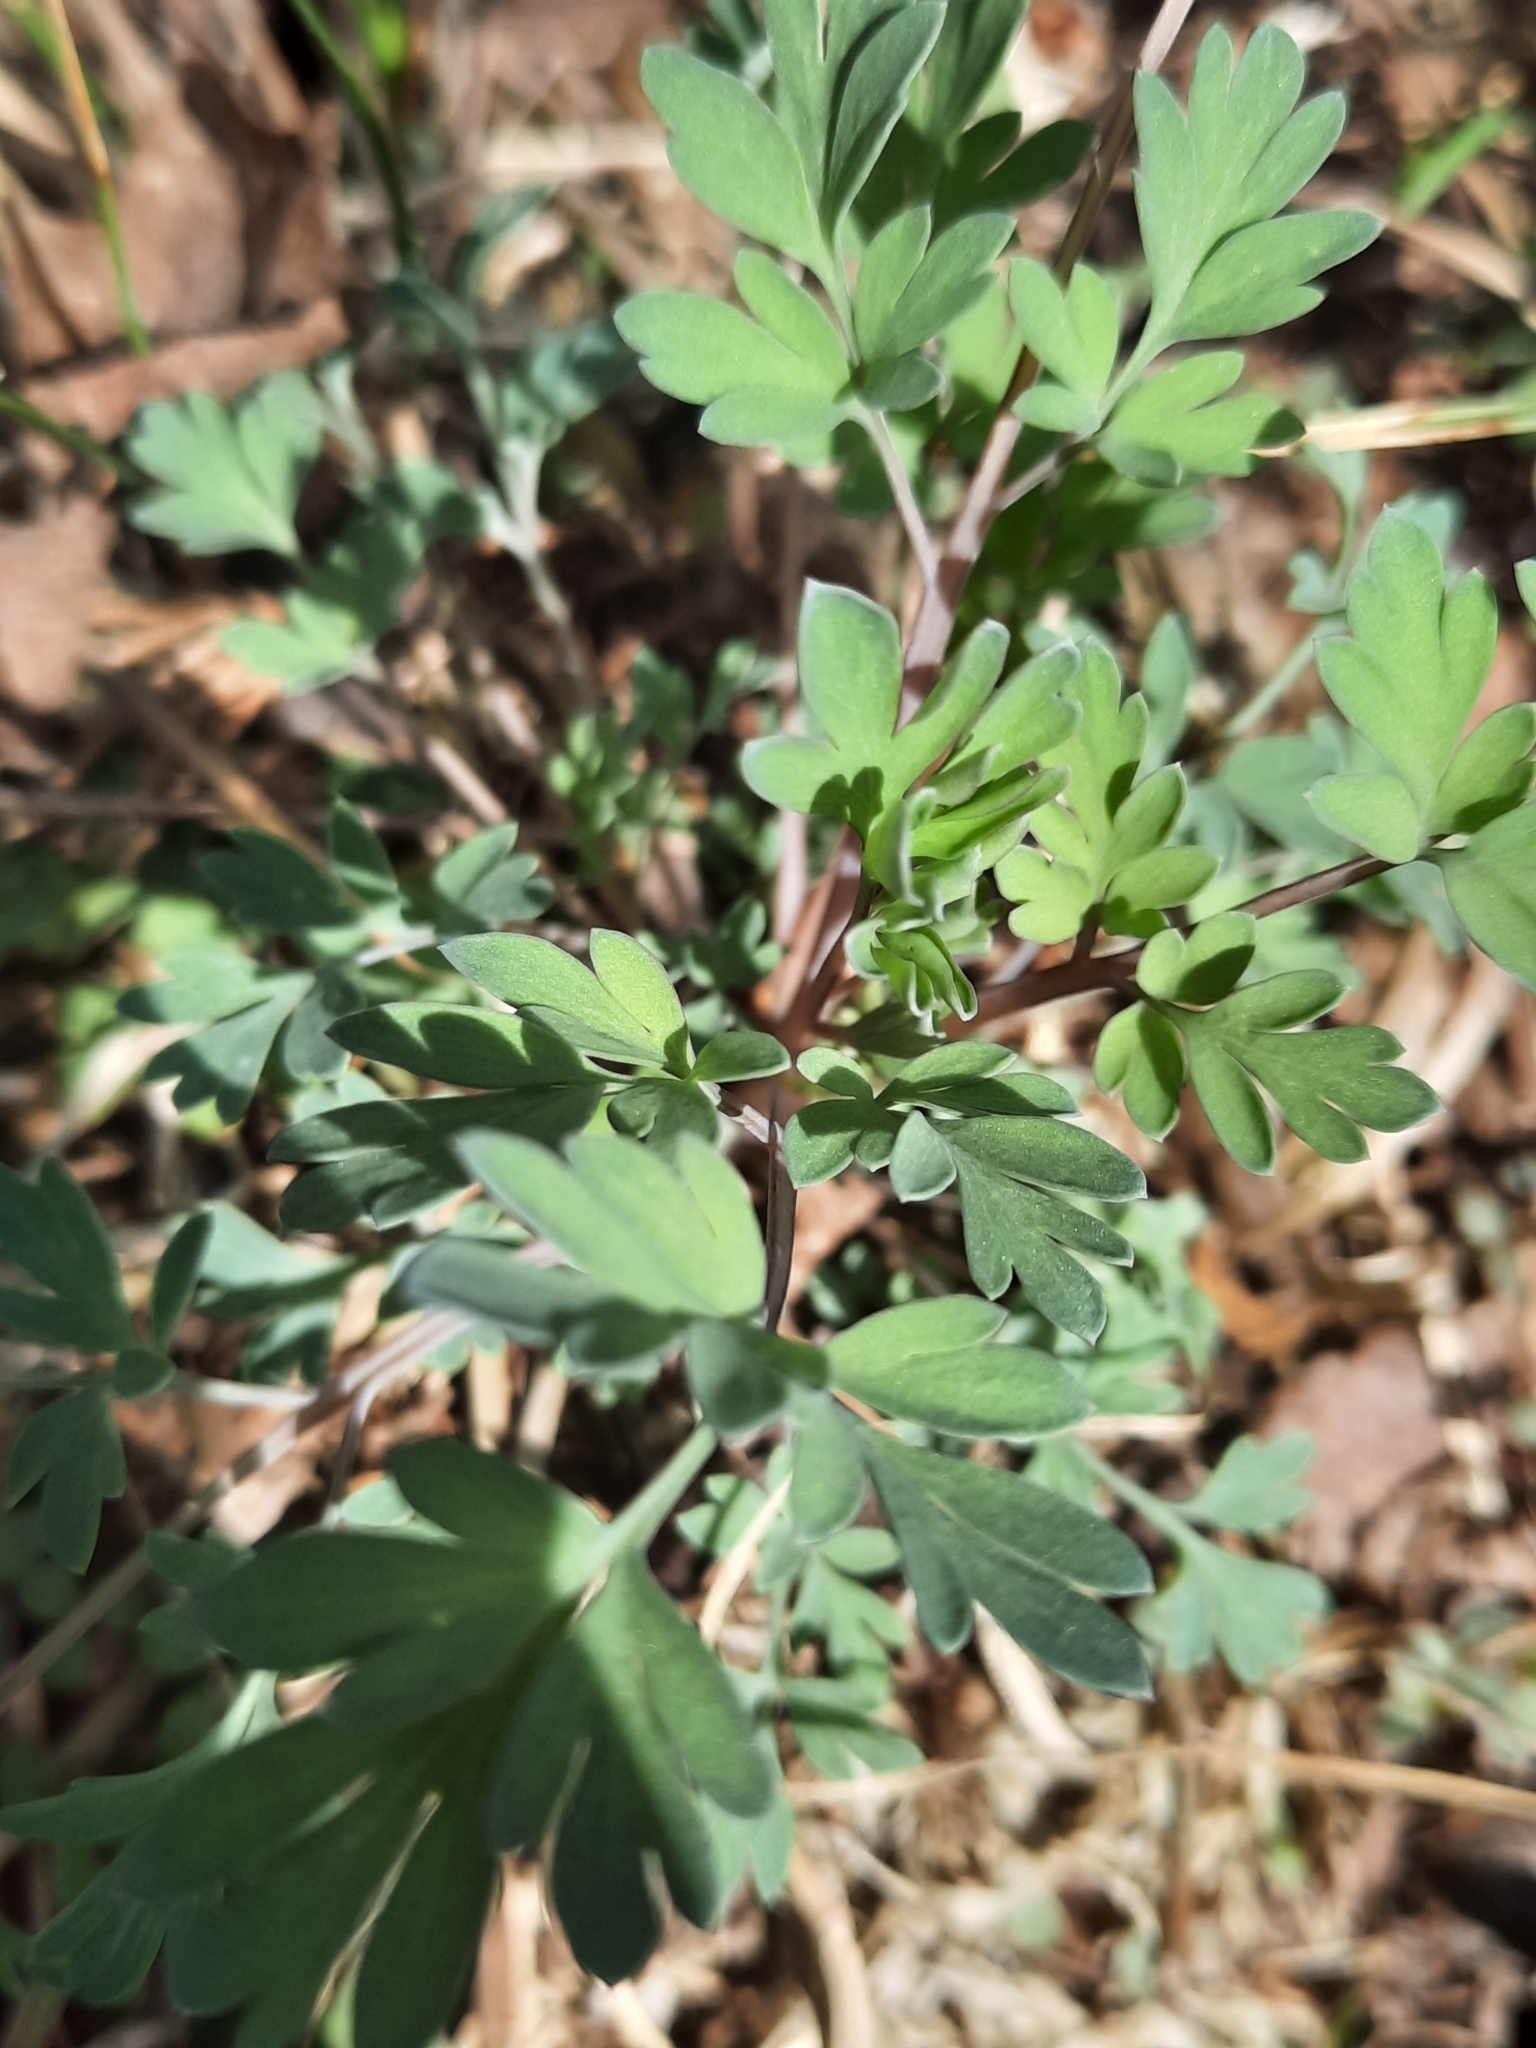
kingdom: Plantae
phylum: Tracheophyta
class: Magnoliopsida
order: Ranunculales
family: Papaveraceae
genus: Capnoides
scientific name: Capnoides sempervirens
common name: Rock harlequin
